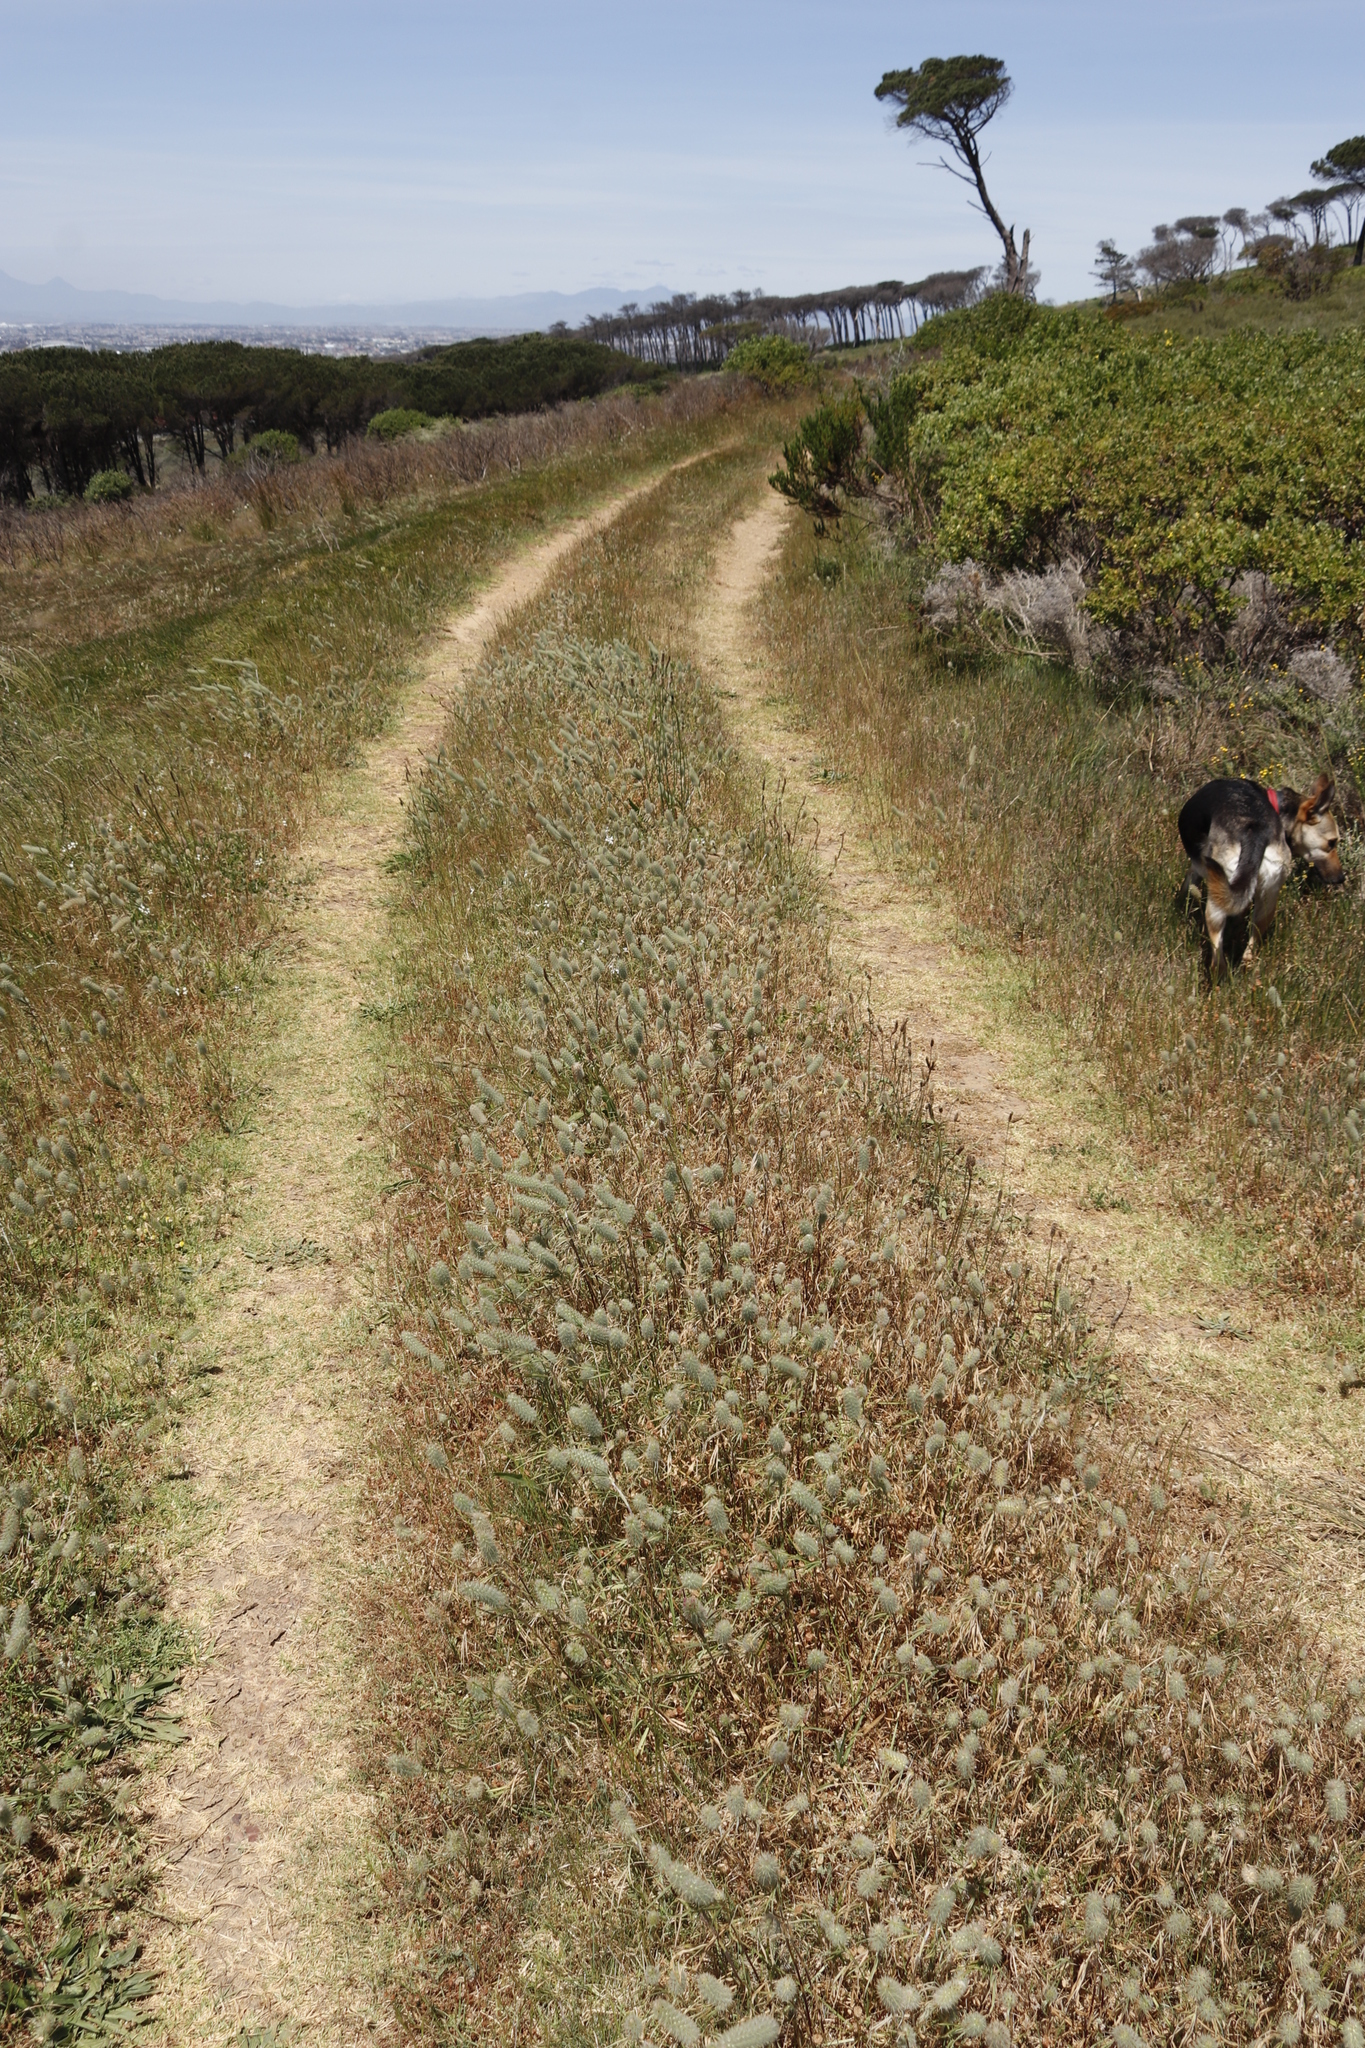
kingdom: Plantae
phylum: Tracheophyta
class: Magnoliopsida
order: Fabales
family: Fabaceae
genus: Trifolium
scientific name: Trifolium angustifolium
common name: Narrow clover
